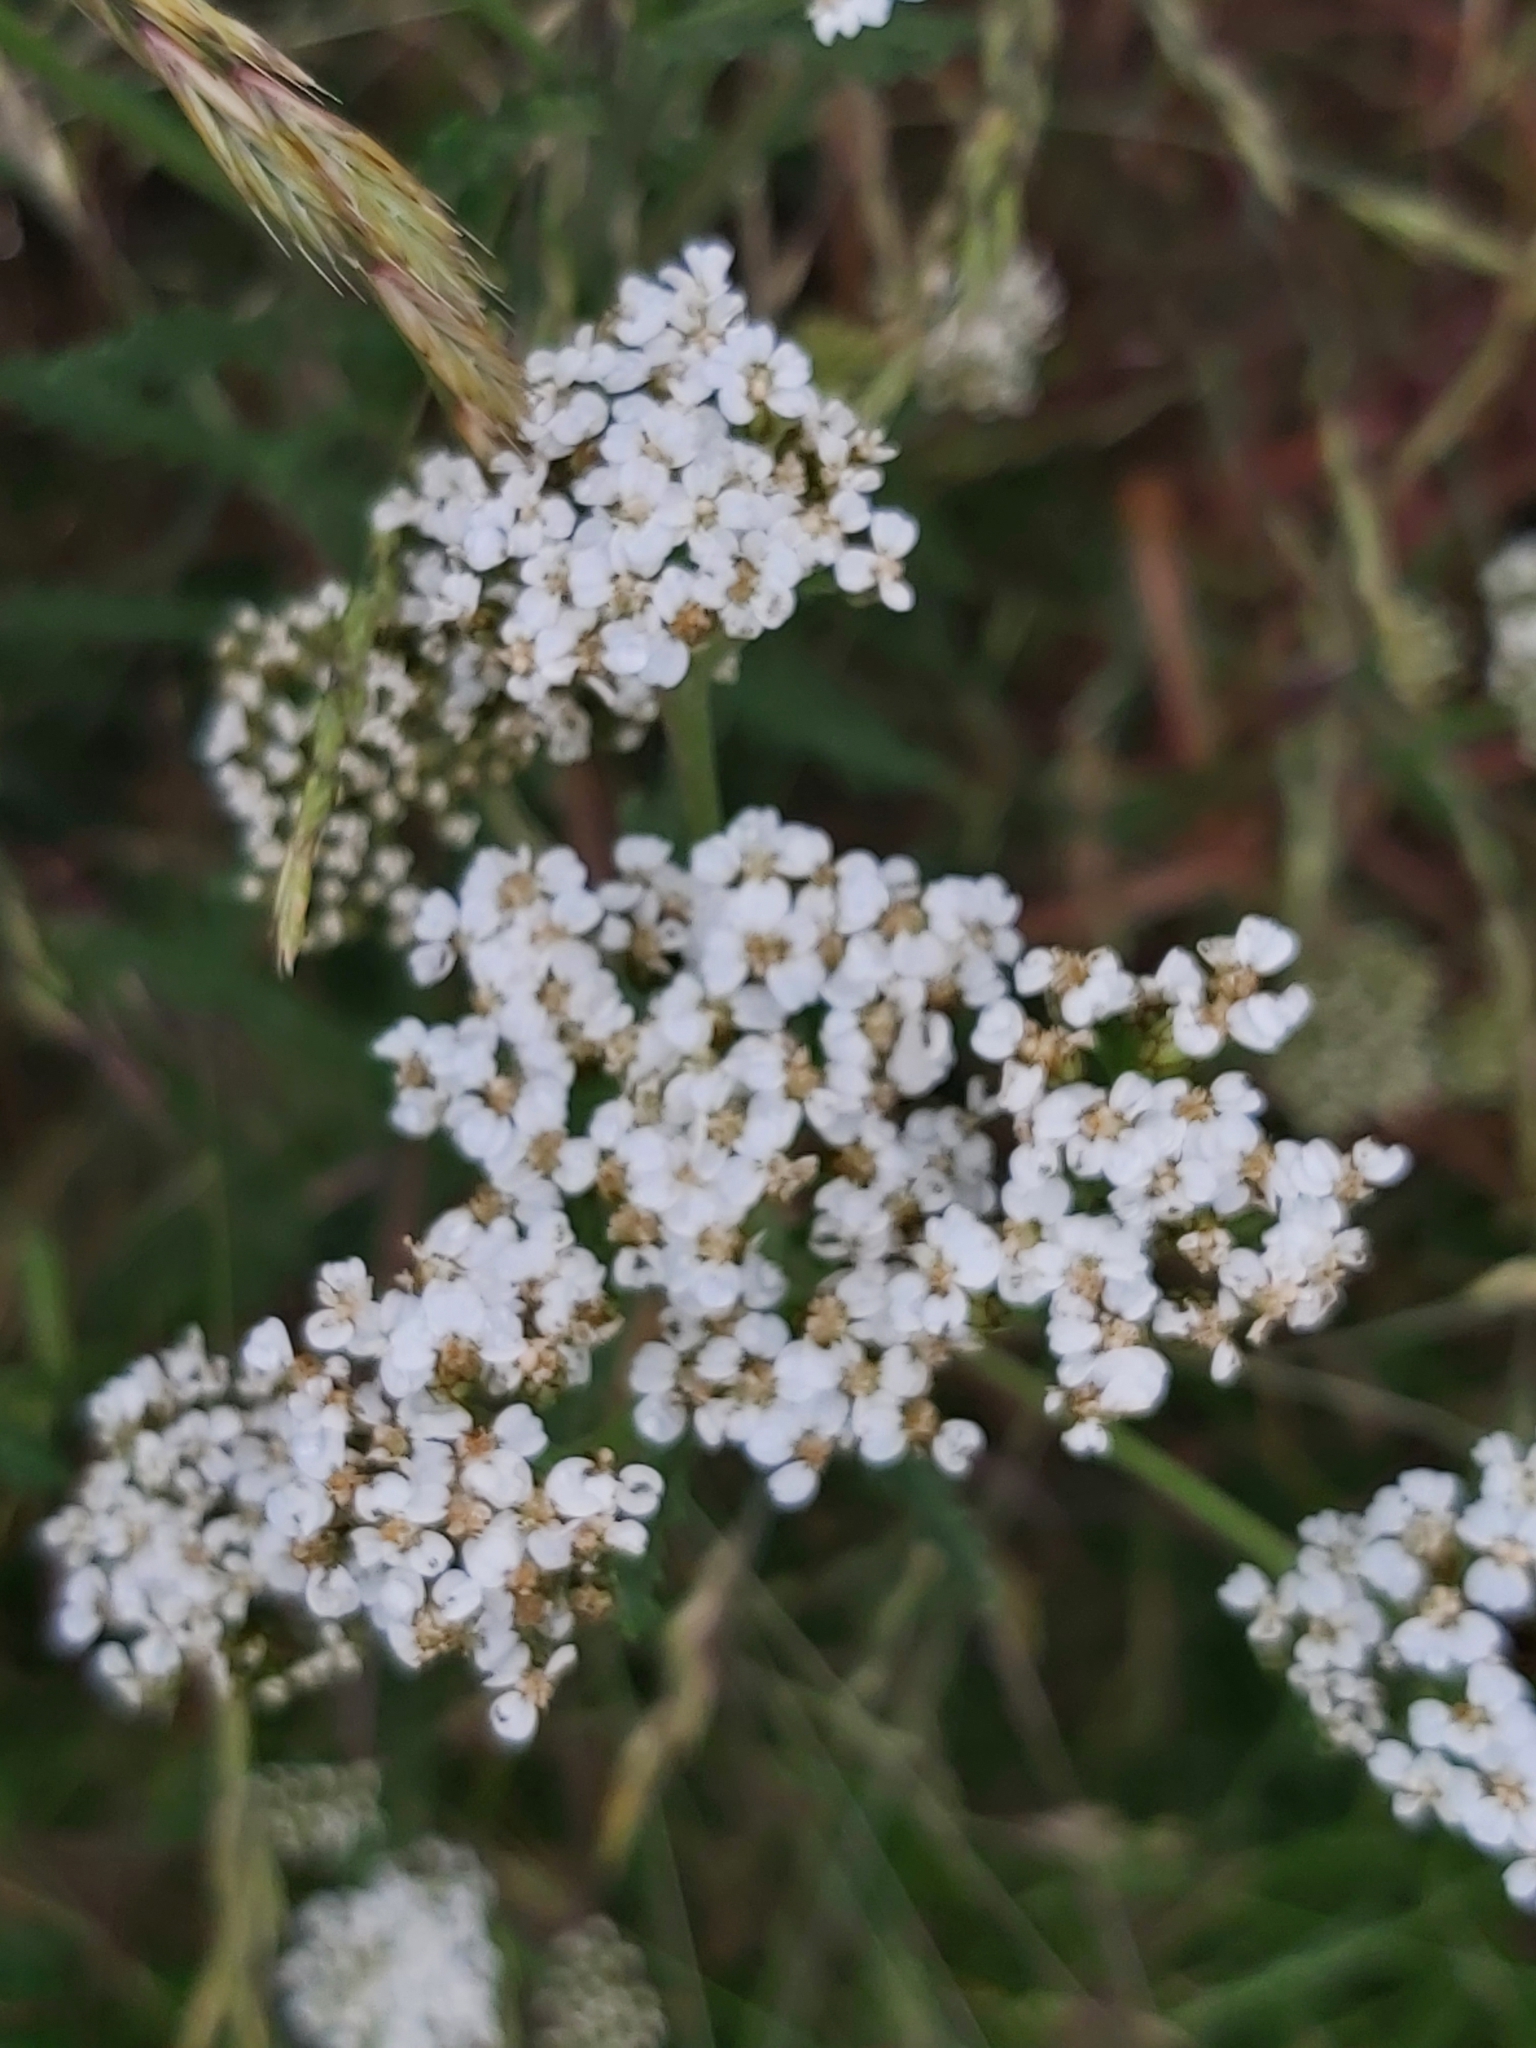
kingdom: Plantae
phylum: Tracheophyta
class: Magnoliopsida
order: Asterales
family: Asteraceae
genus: Achillea
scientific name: Achillea millefolium
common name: Yarrow
